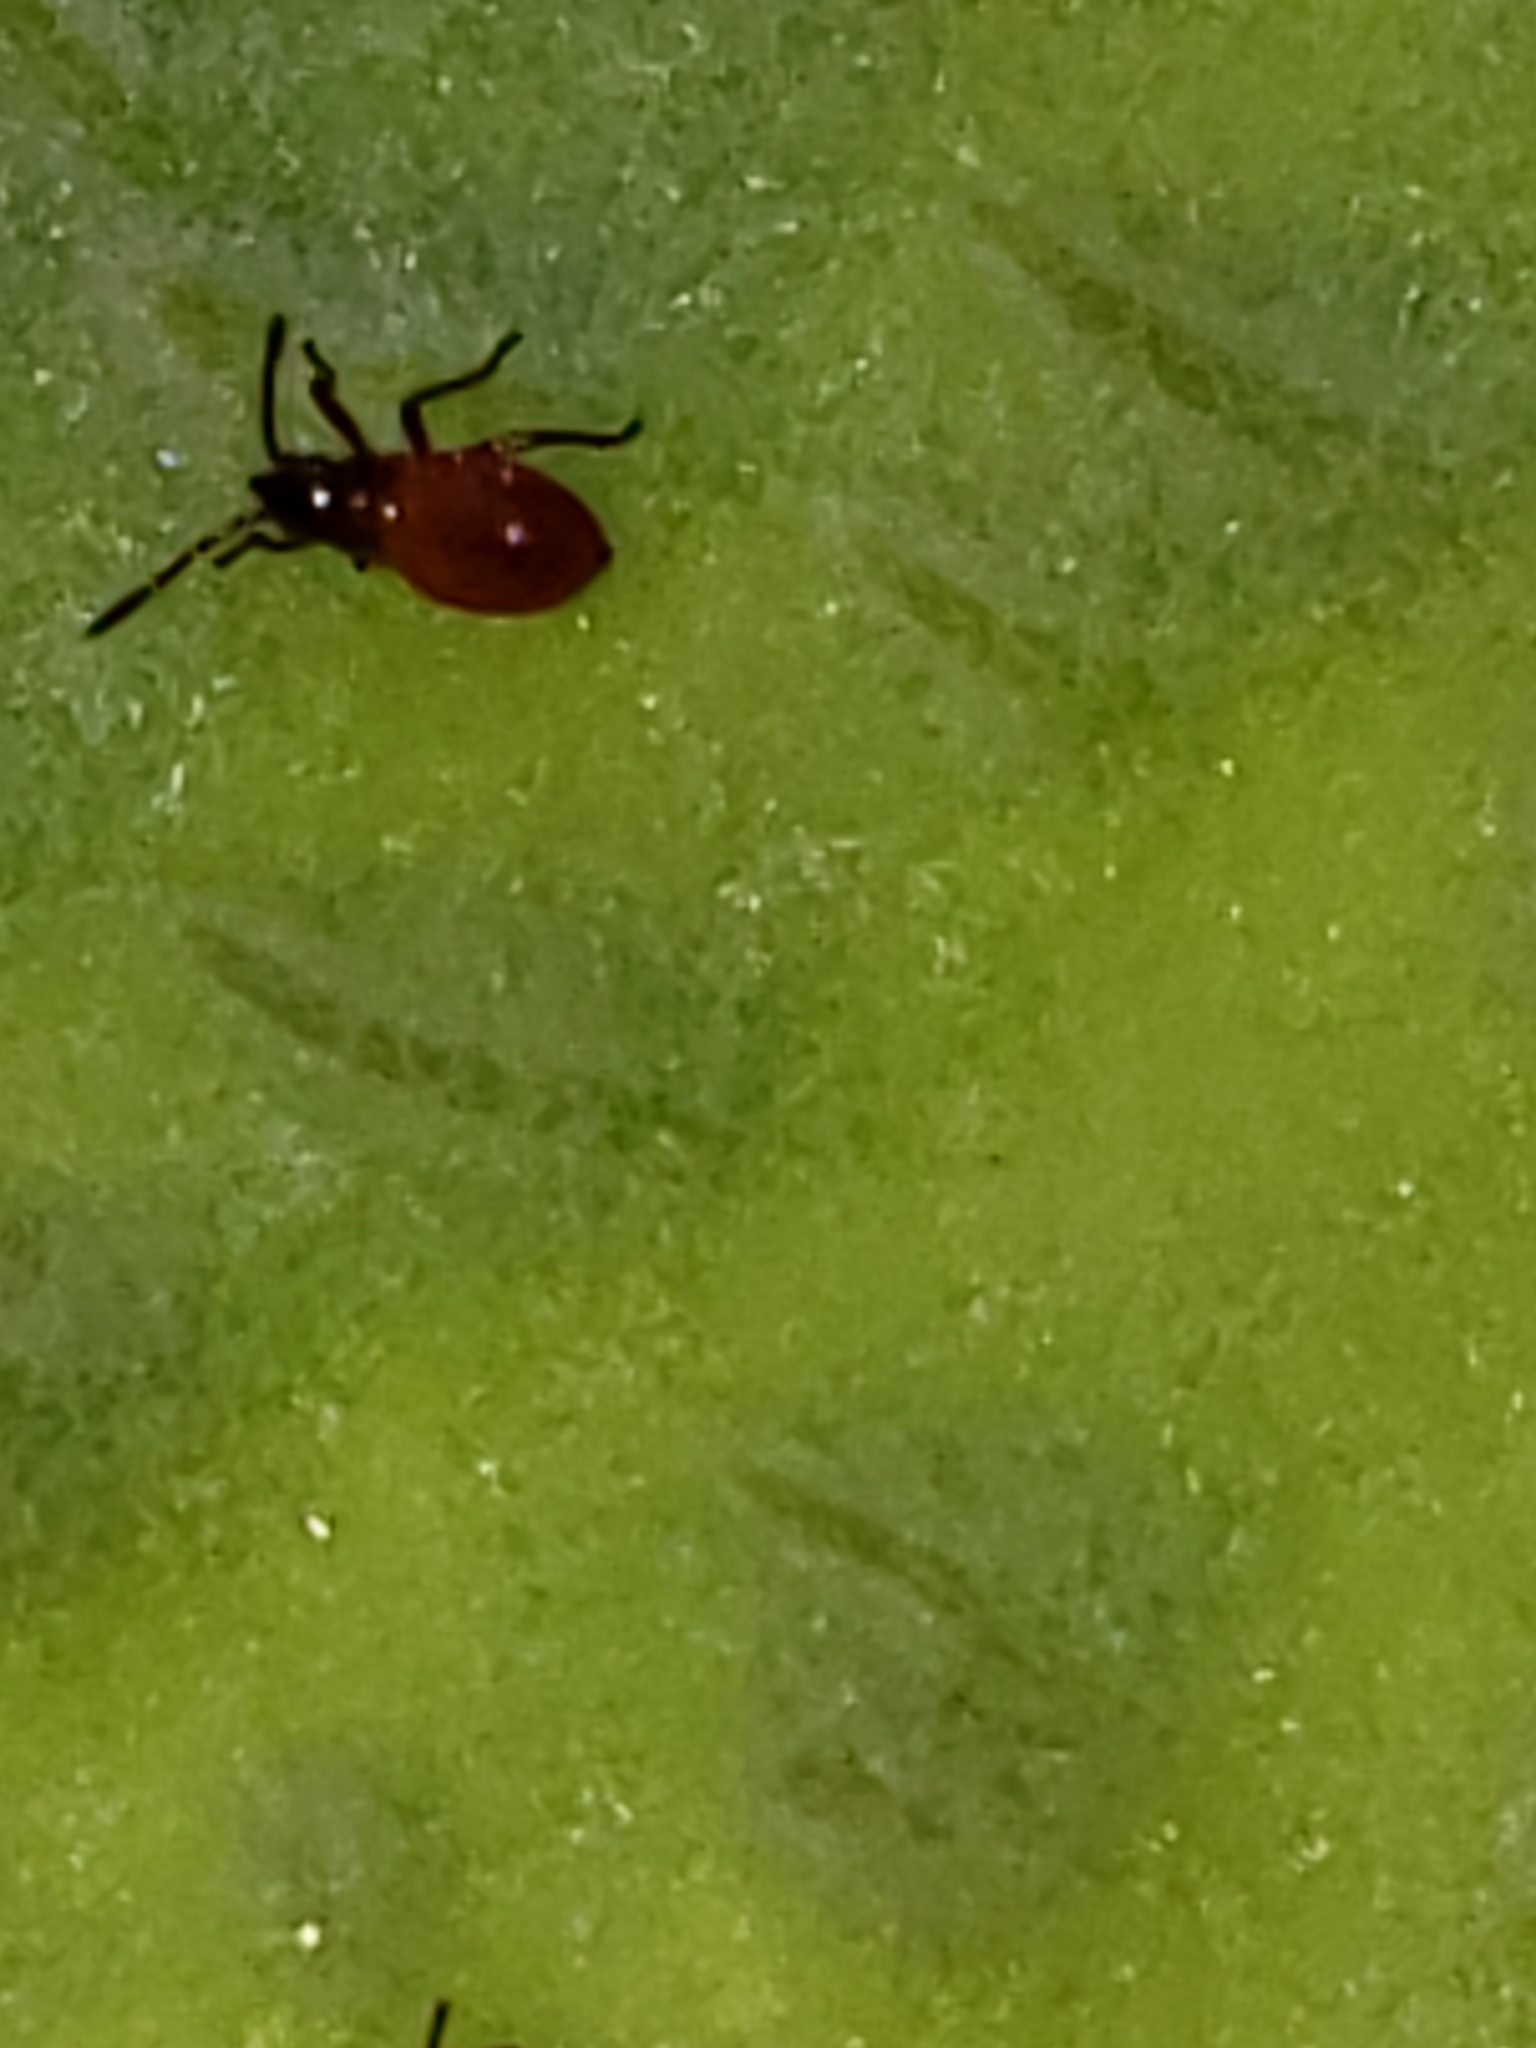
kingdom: Animalia
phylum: Arthropoda
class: Insecta
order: Hemiptera
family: Lygaeidae
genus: Oncopeltus
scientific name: Oncopeltus fasciatus
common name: Large milkweed bug
